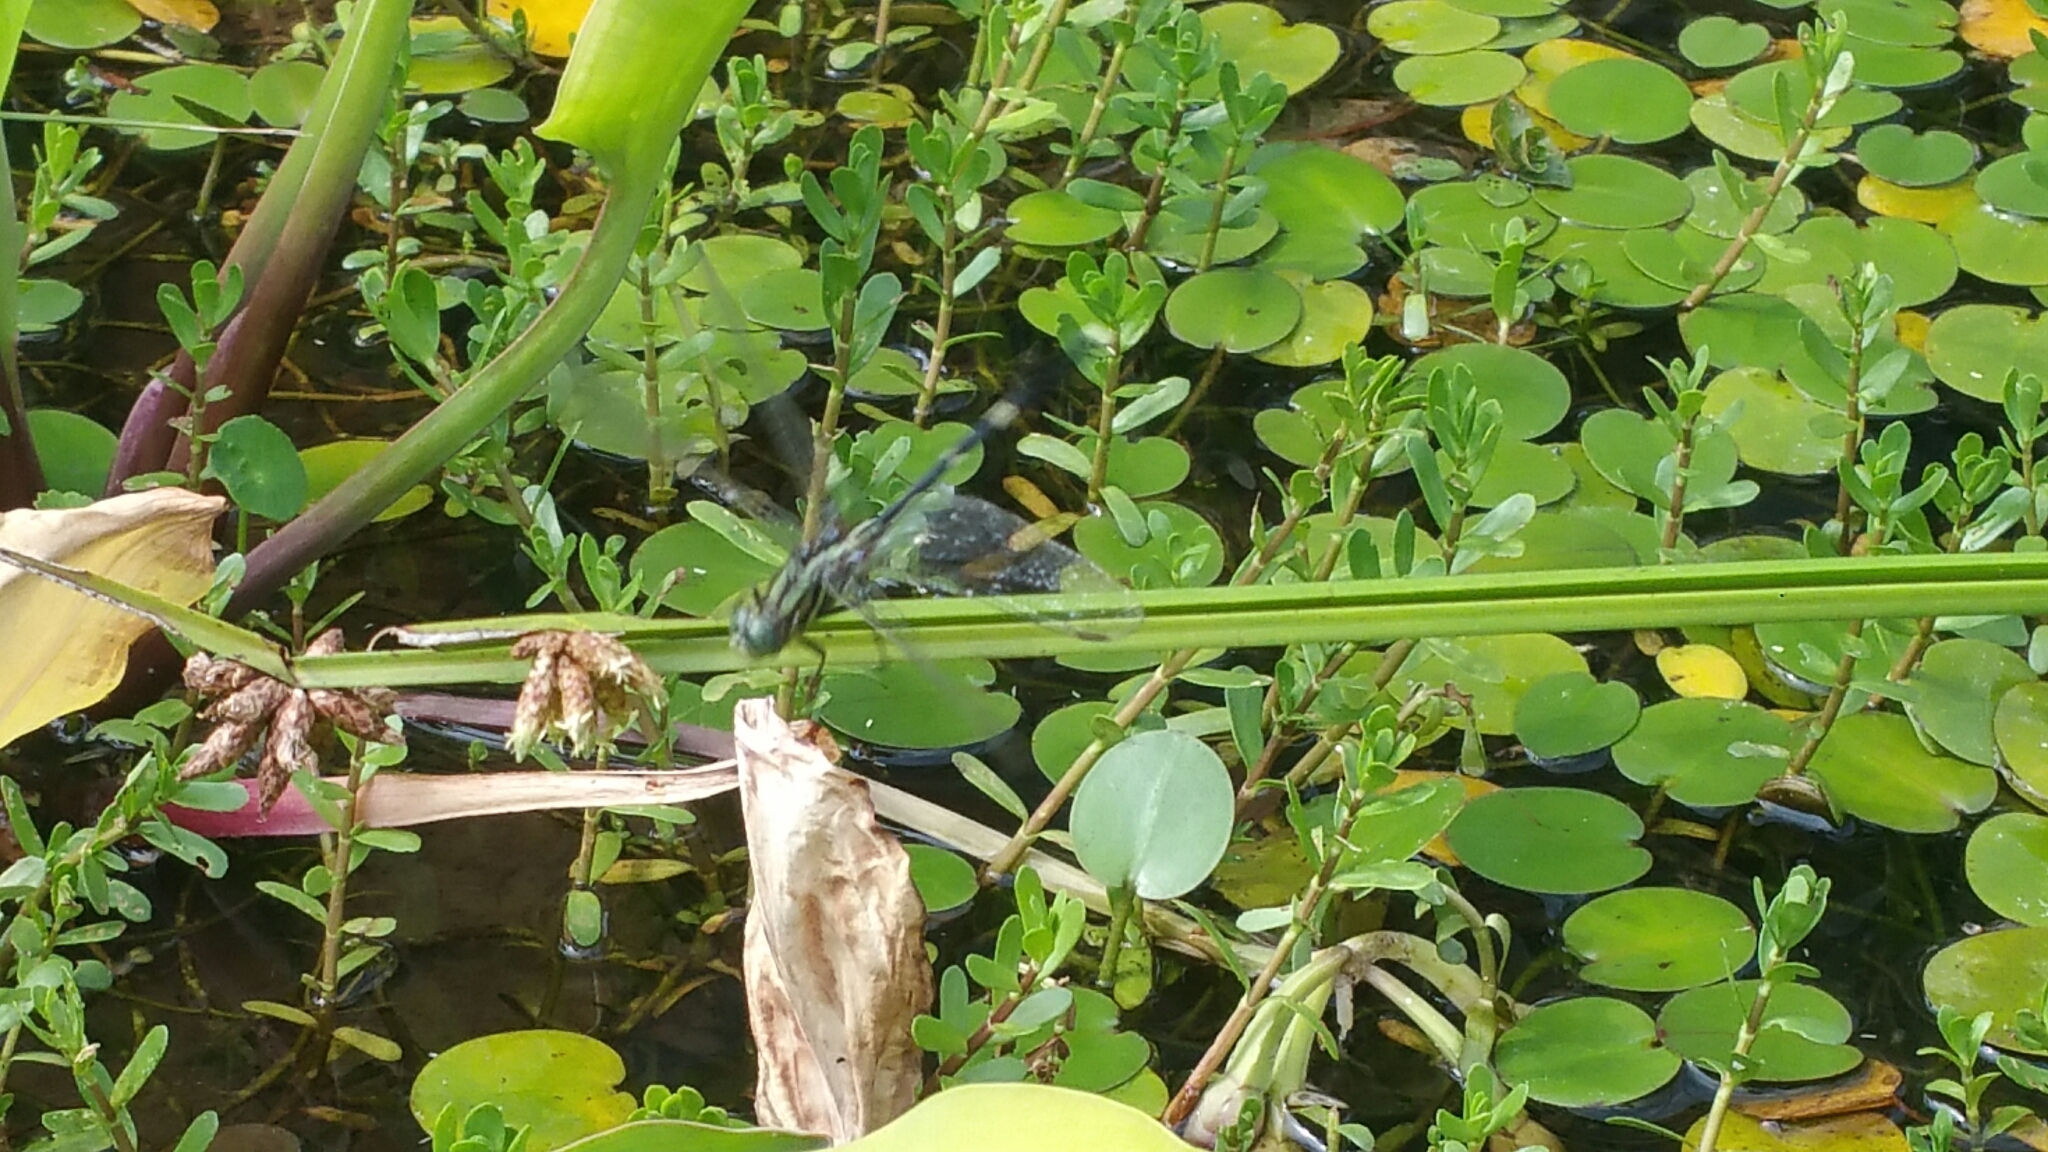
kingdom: Animalia
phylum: Arthropoda
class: Insecta
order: Odonata
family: Libellulidae
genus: Orthetrum
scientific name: Orthetrum sabina
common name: Slender skimmer
